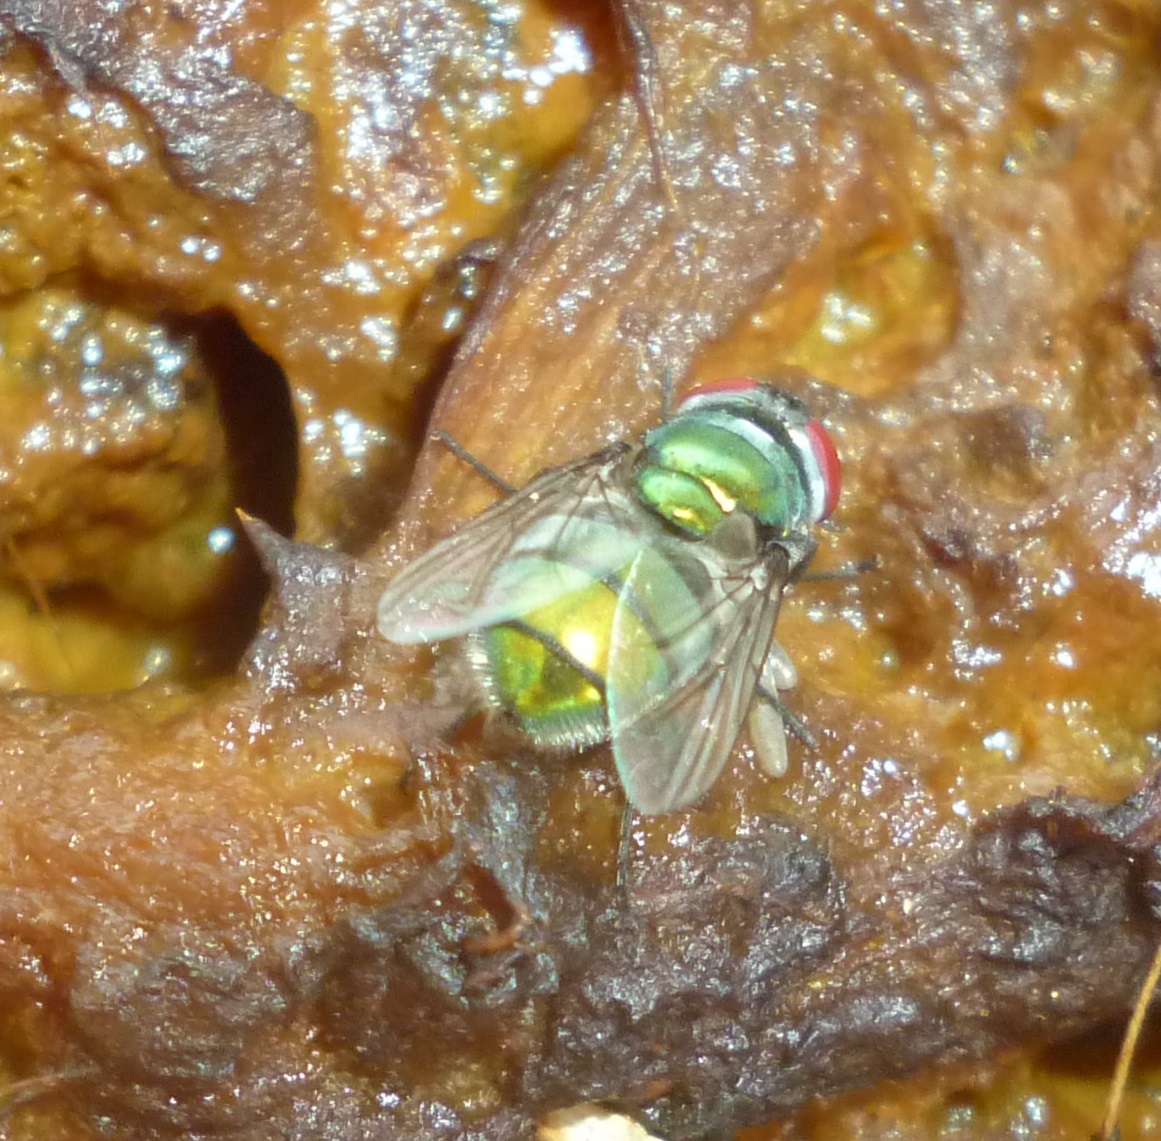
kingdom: Animalia
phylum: Arthropoda
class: Insecta
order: Diptera
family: Calliphoridae
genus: Chrysomya
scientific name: Chrysomya albiceps
